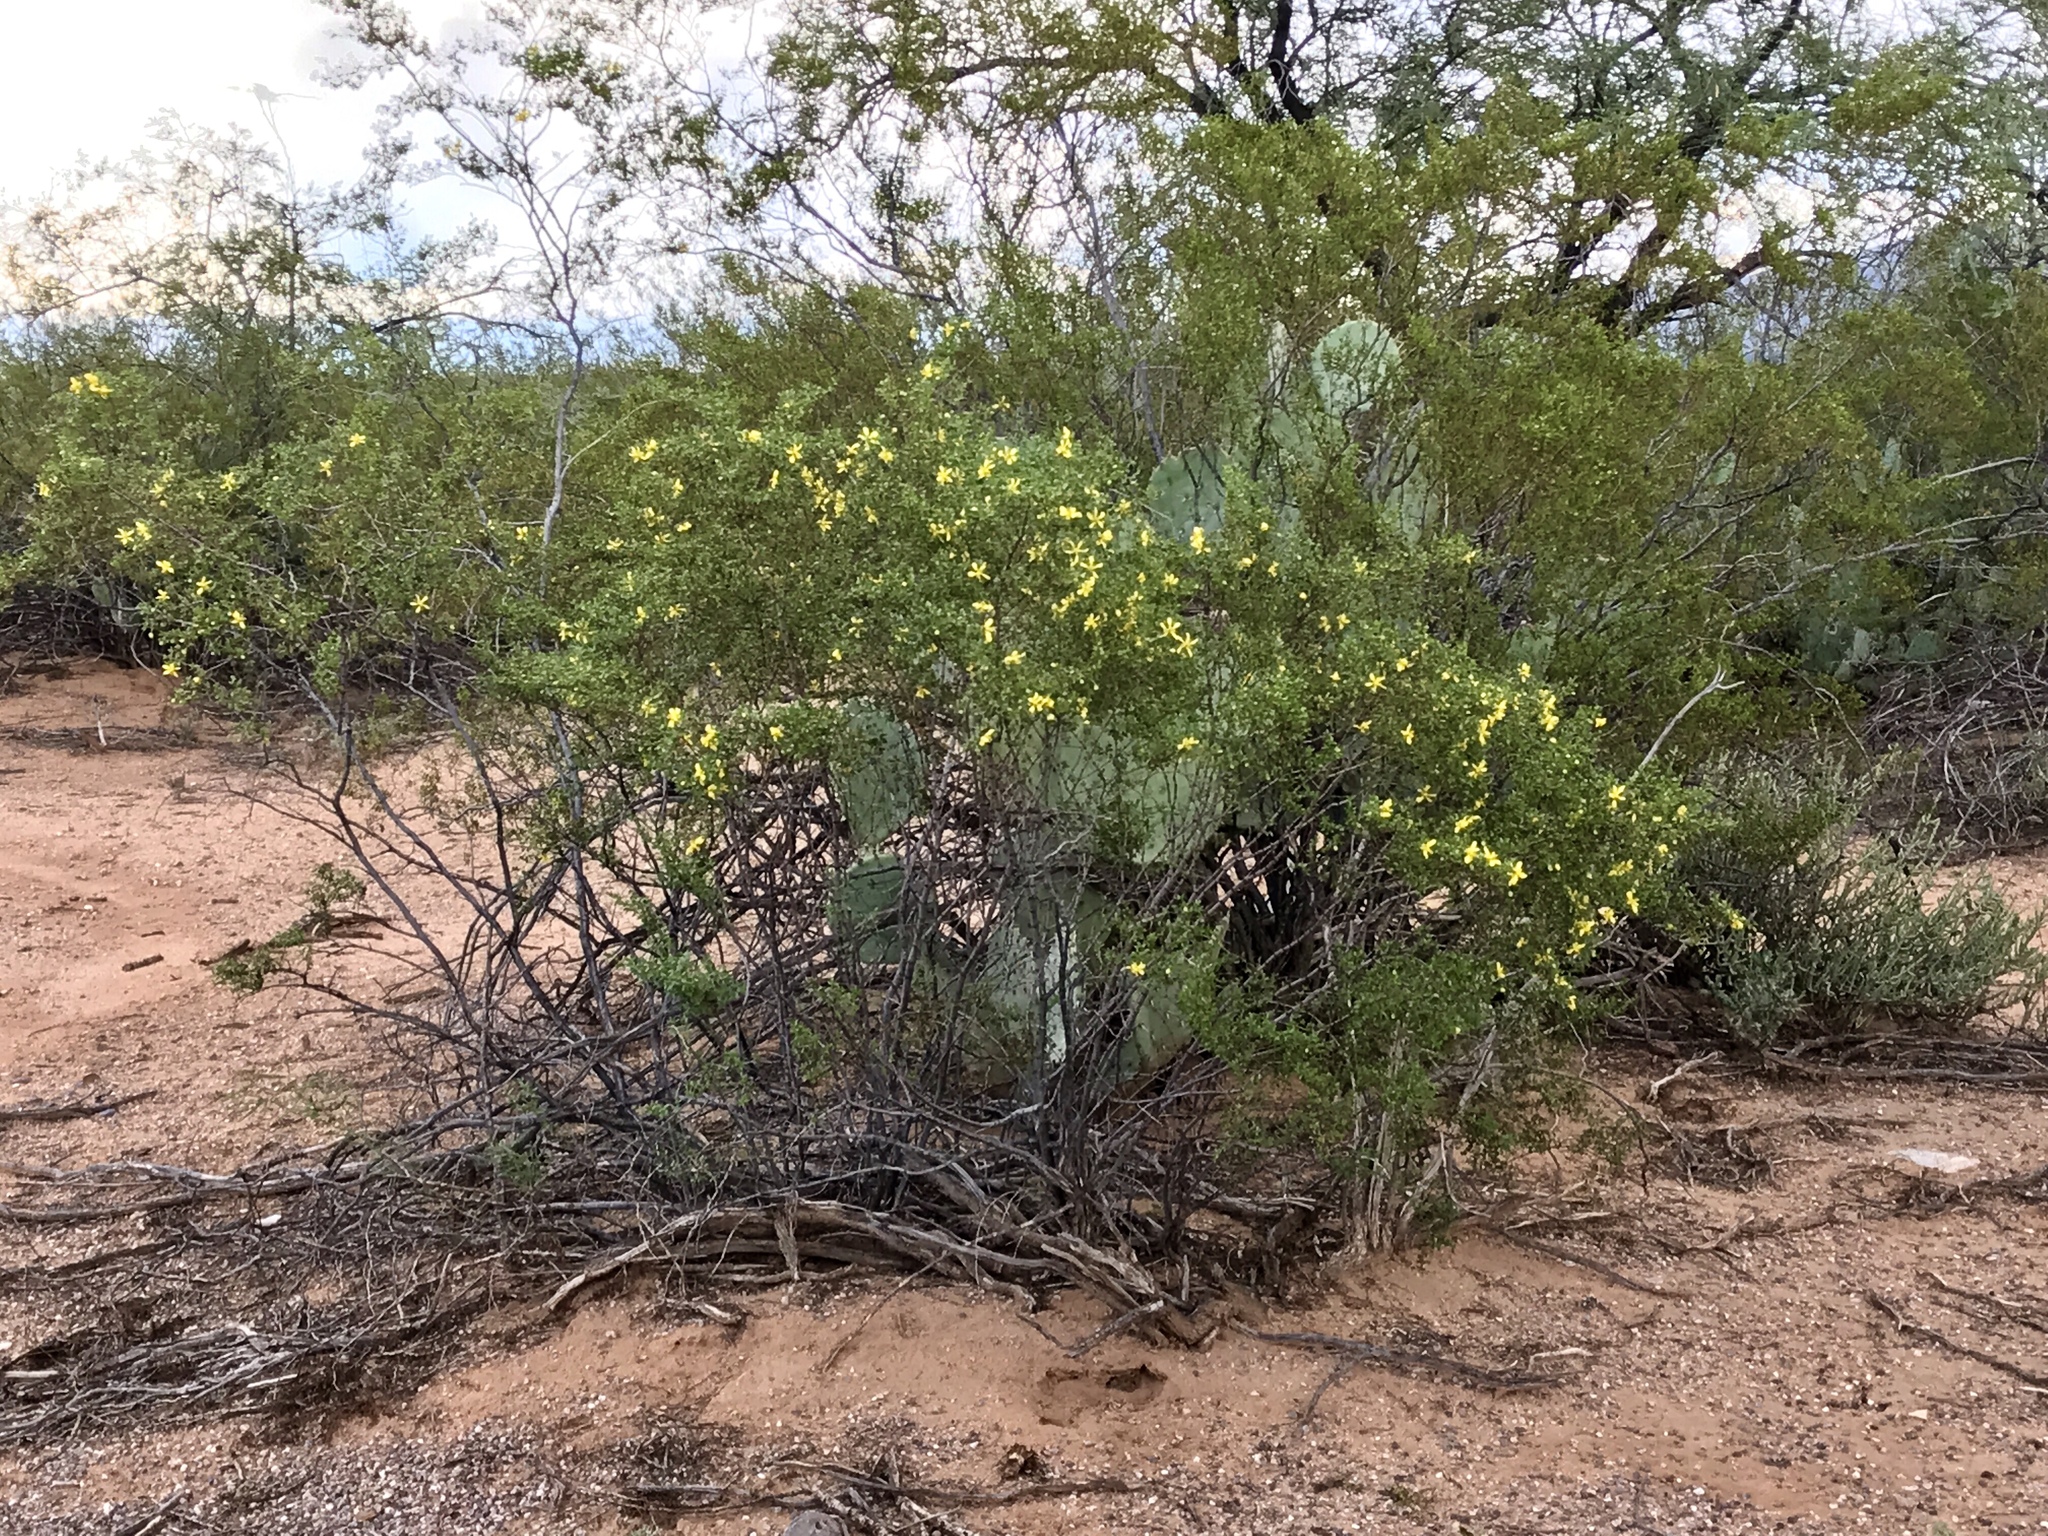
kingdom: Plantae
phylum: Tracheophyta
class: Magnoliopsida
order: Zygophyllales
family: Zygophyllaceae
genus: Larrea
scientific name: Larrea tridentata
